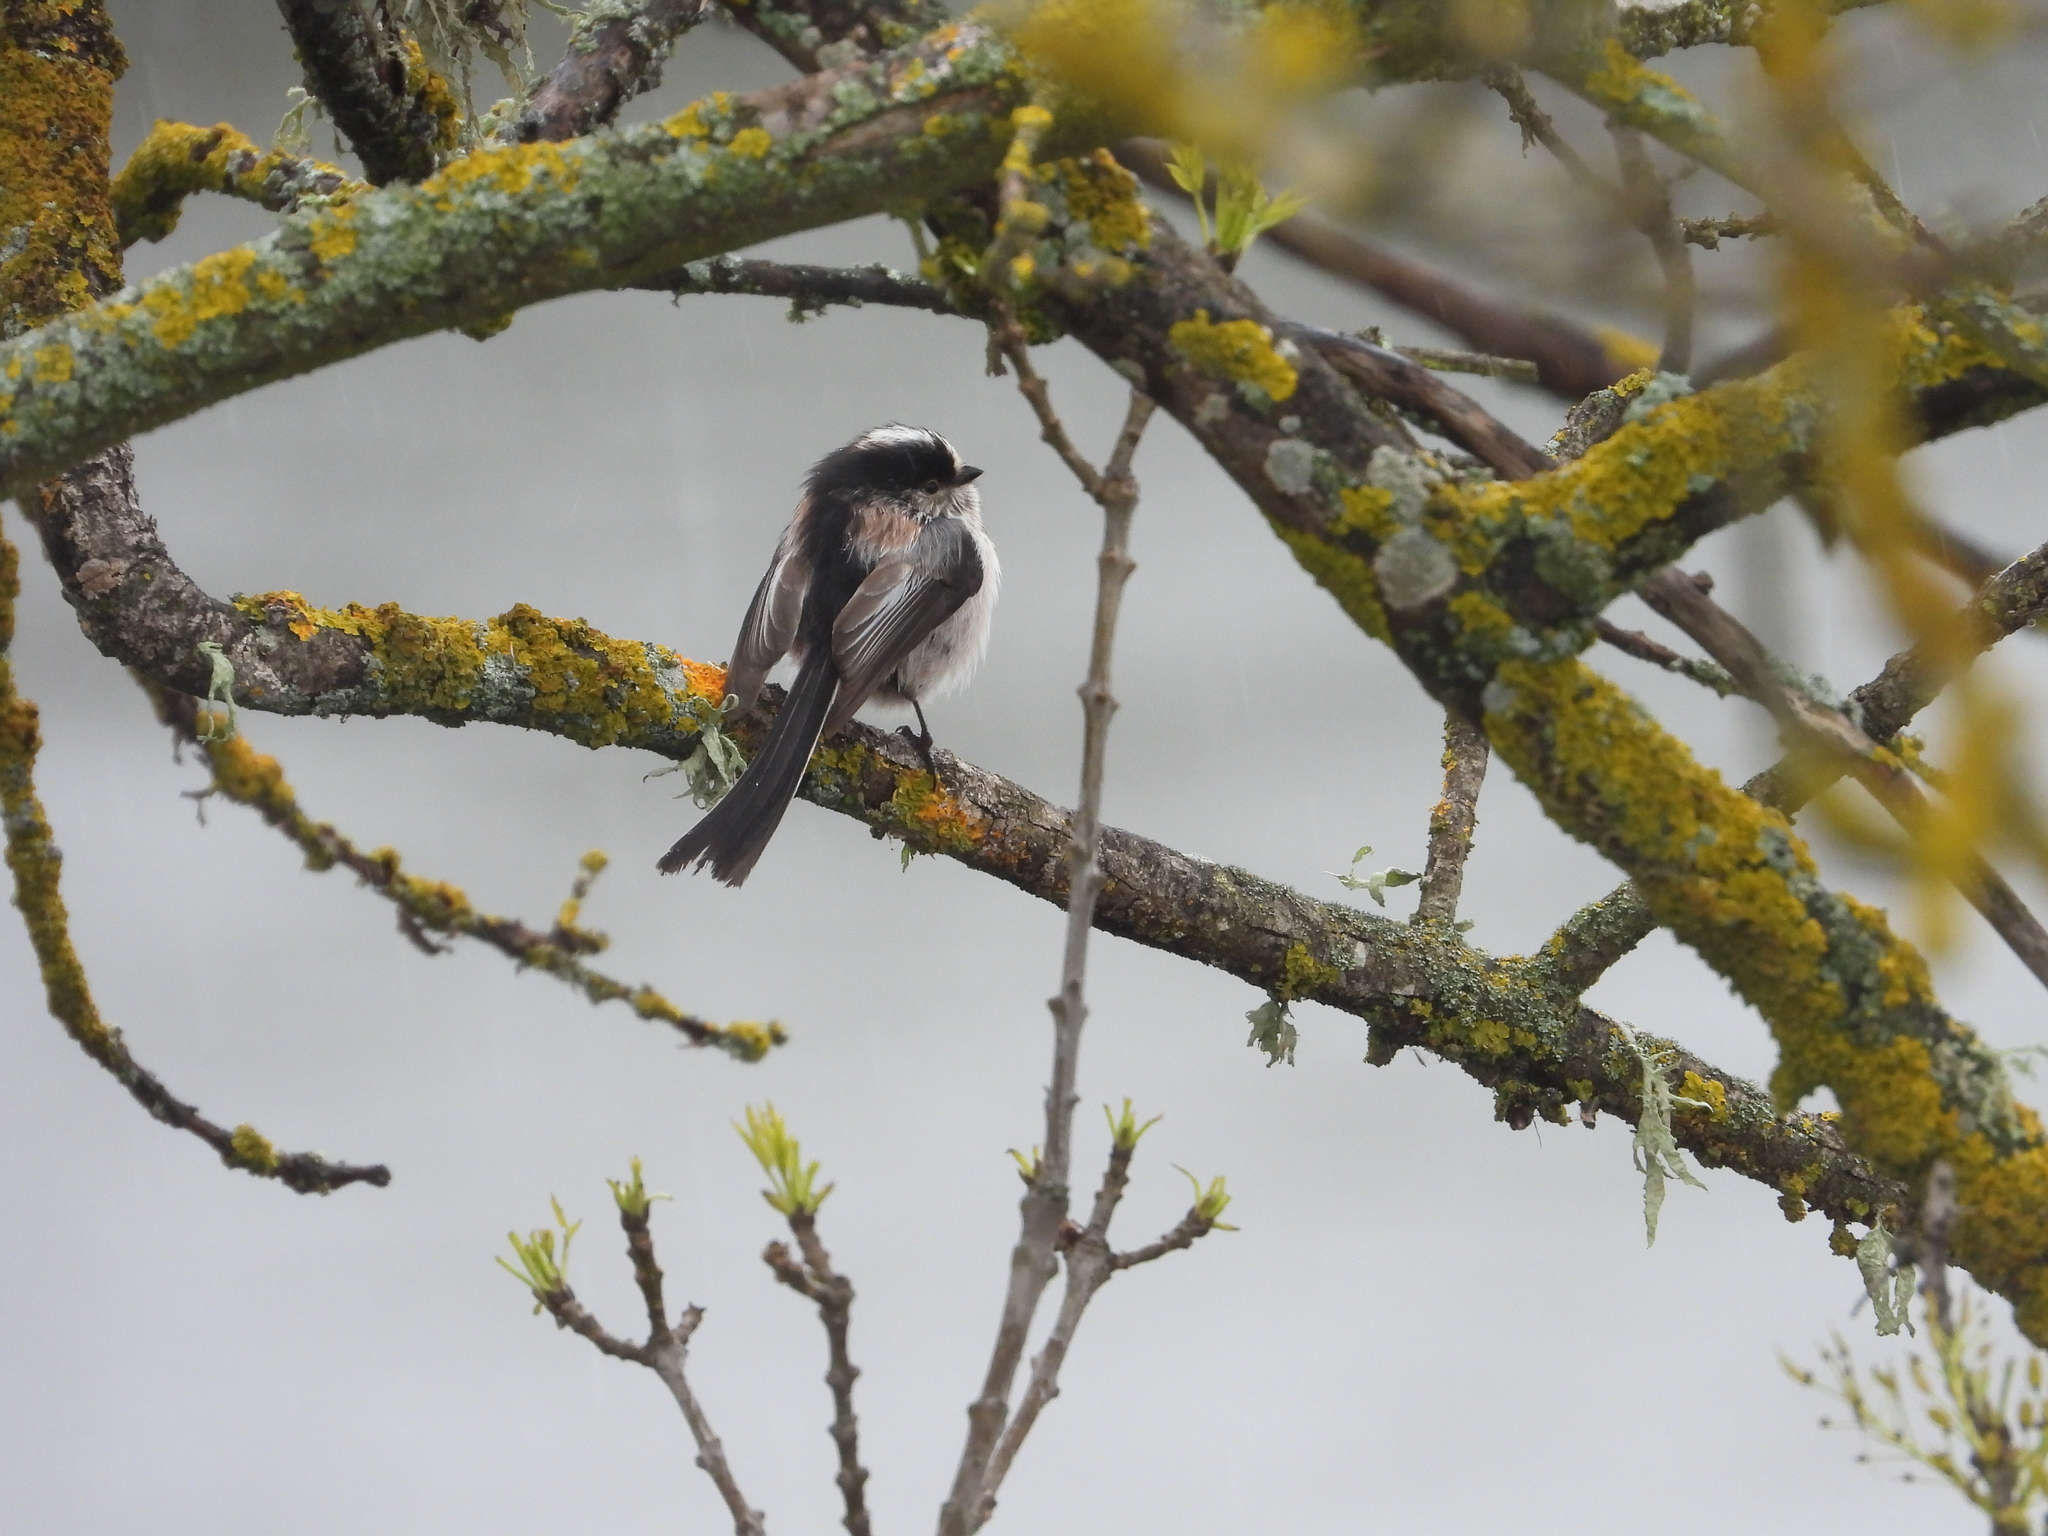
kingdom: Animalia
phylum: Chordata
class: Aves
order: Passeriformes
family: Aegithalidae
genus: Aegithalos
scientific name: Aegithalos caudatus
